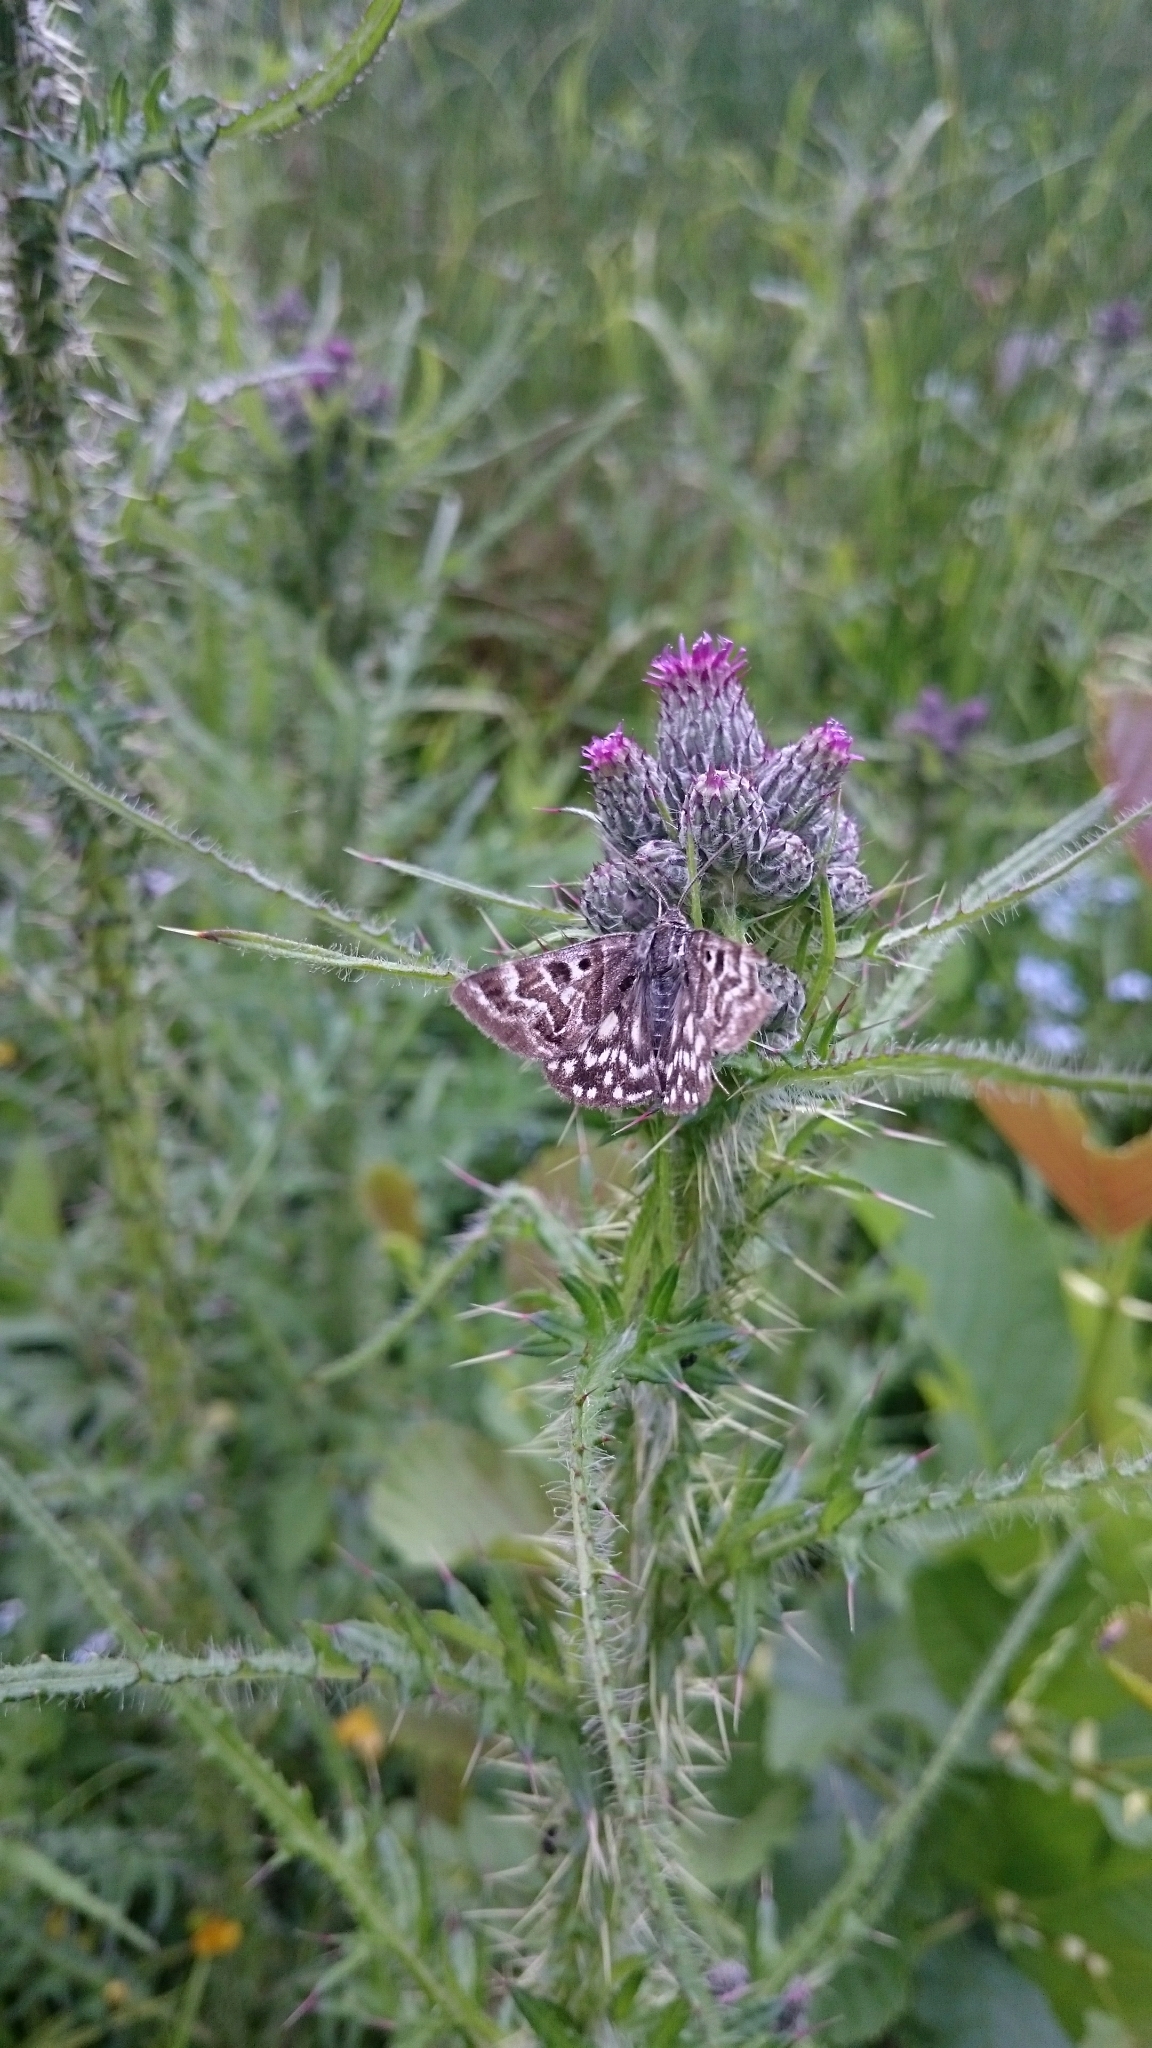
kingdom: Animalia
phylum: Arthropoda
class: Insecta
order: Lepidoptera
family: Erebidae
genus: Callistege
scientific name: Callistege mi
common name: Mother shipton
